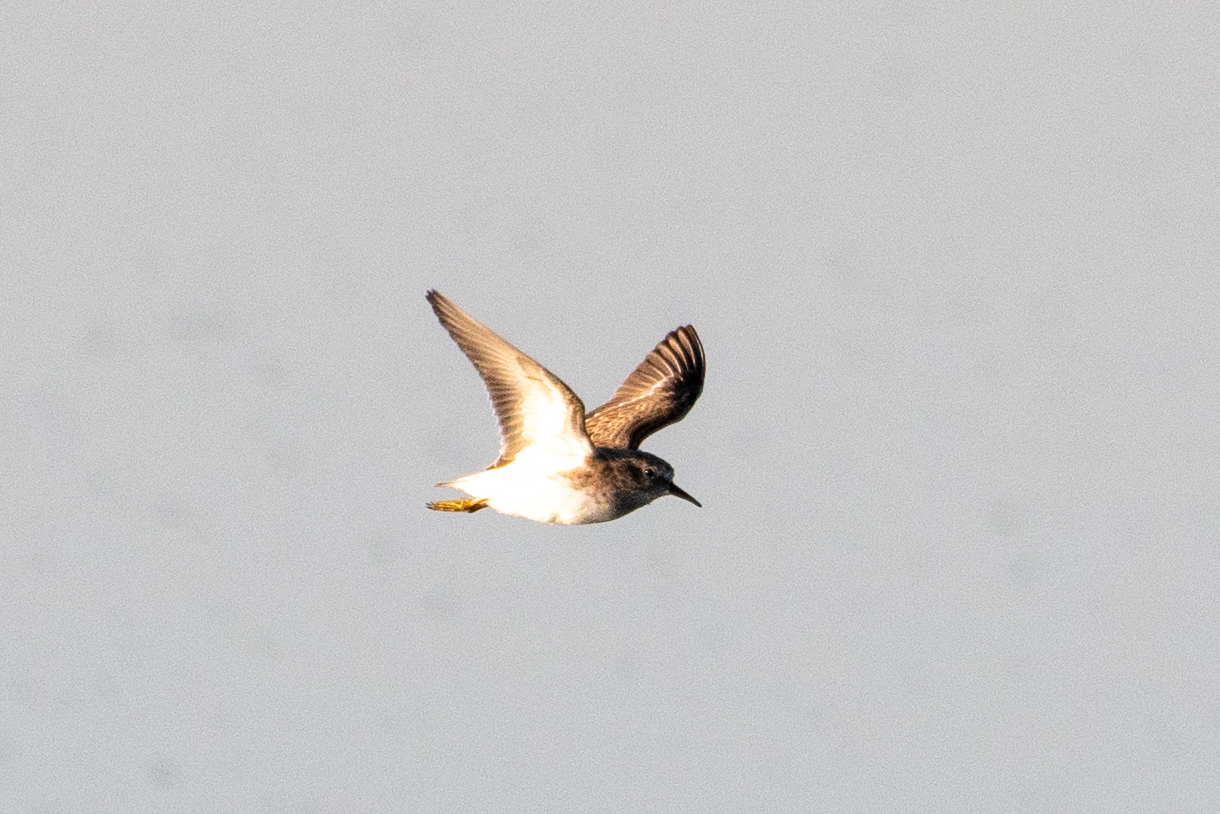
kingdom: Animalia
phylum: Chordata
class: Aves
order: Charadriiformes
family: Scolopacidae
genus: Calidris
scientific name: Calidris minutilla
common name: Least sandpiper
